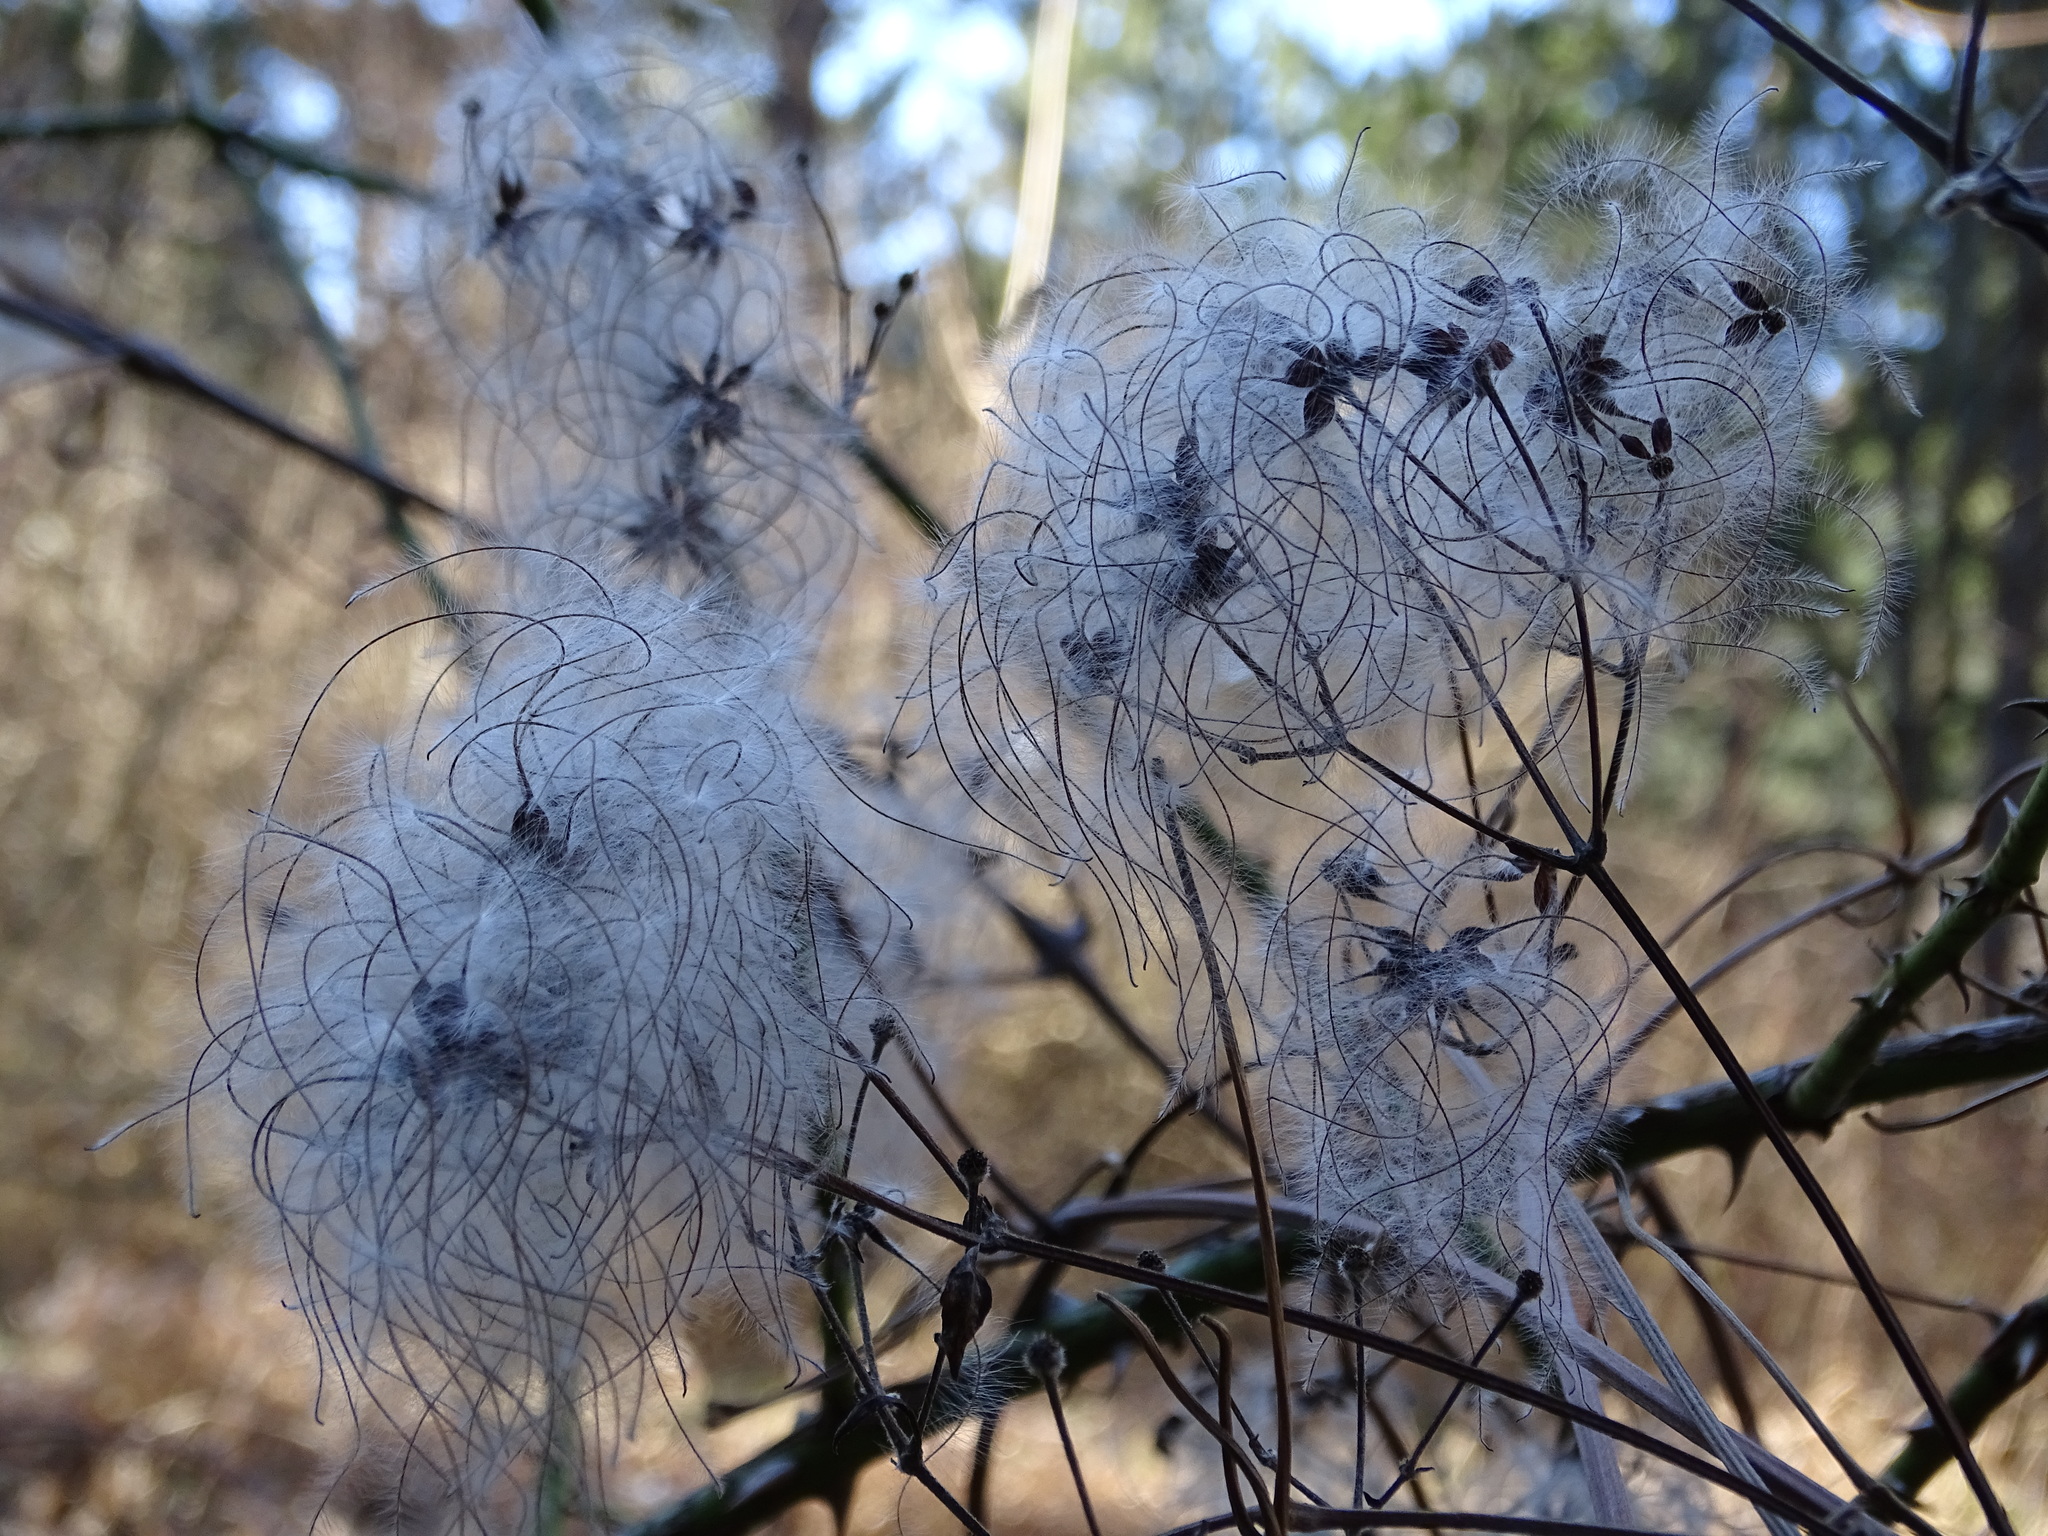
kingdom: Plantae
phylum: Tracheophyta
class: Magnoliopsida
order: Ranunculales
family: Ranunculaceae
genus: Clematis
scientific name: Clematis vitalba
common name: Evergreen clematis
